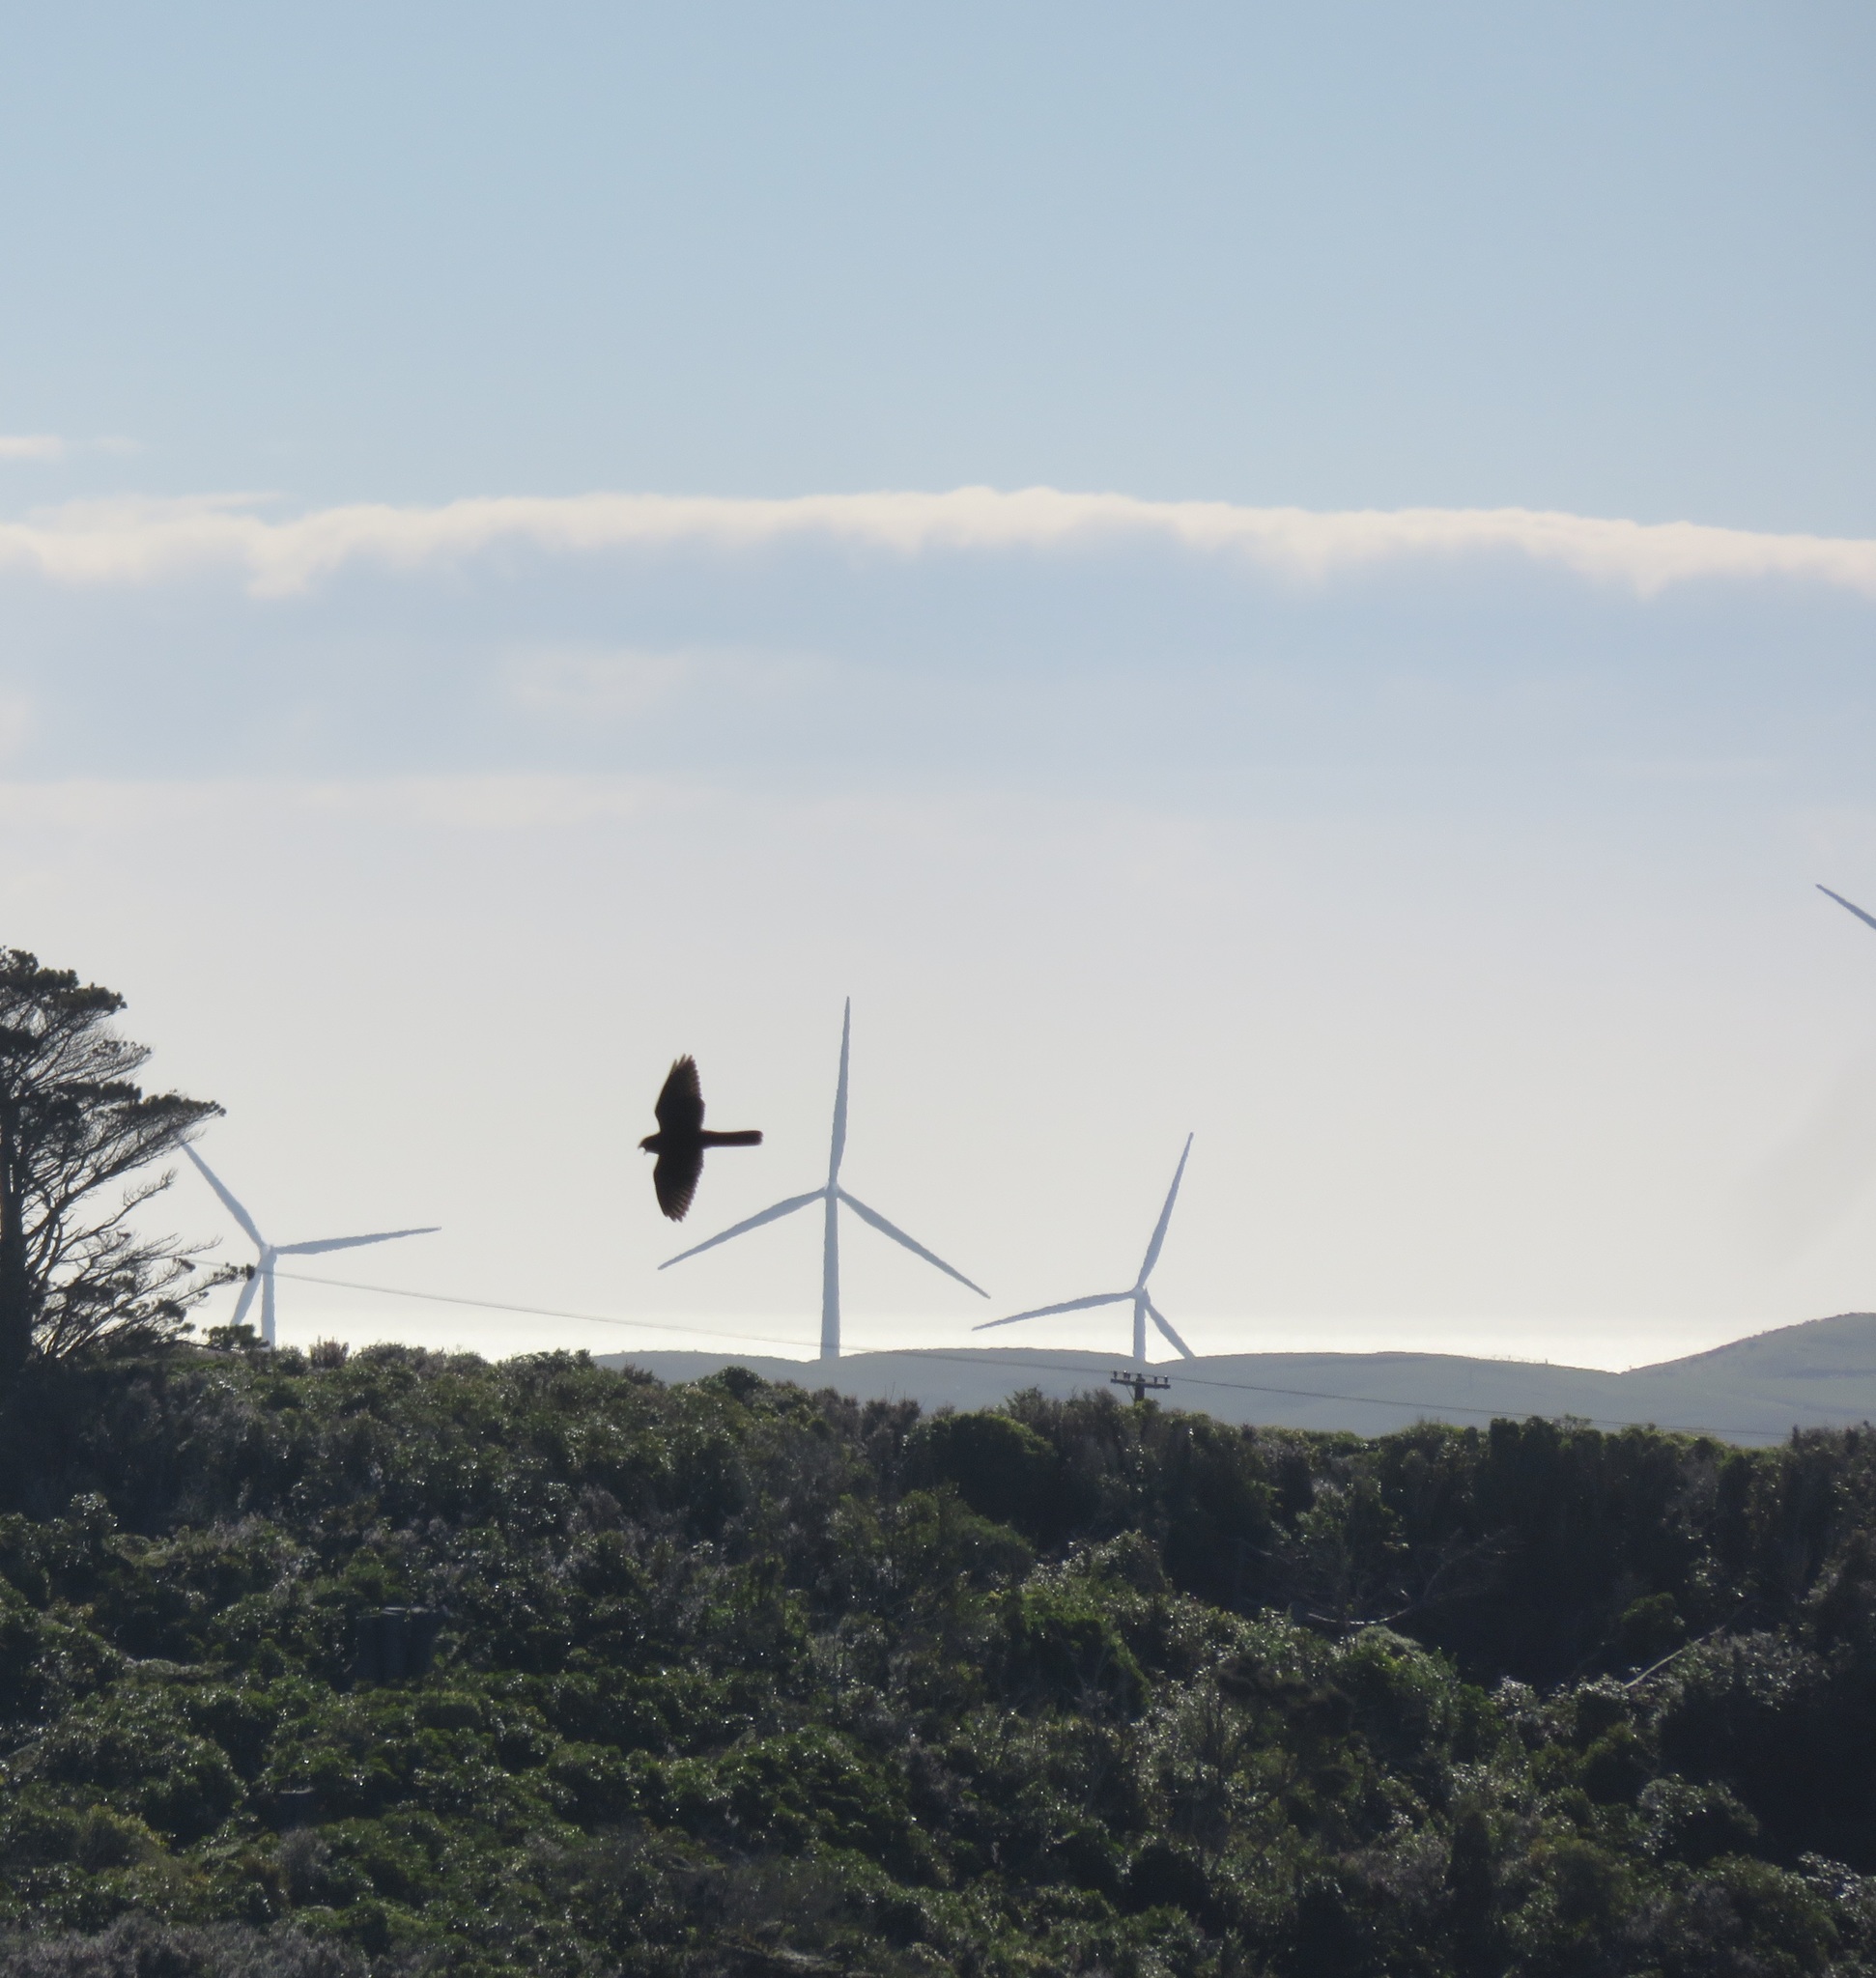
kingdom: Animalia
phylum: Chordata
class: Aves
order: Falconiformes
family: Falconidae
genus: Falco
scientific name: Falco novaeseelandiae
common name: New zealand falcon
